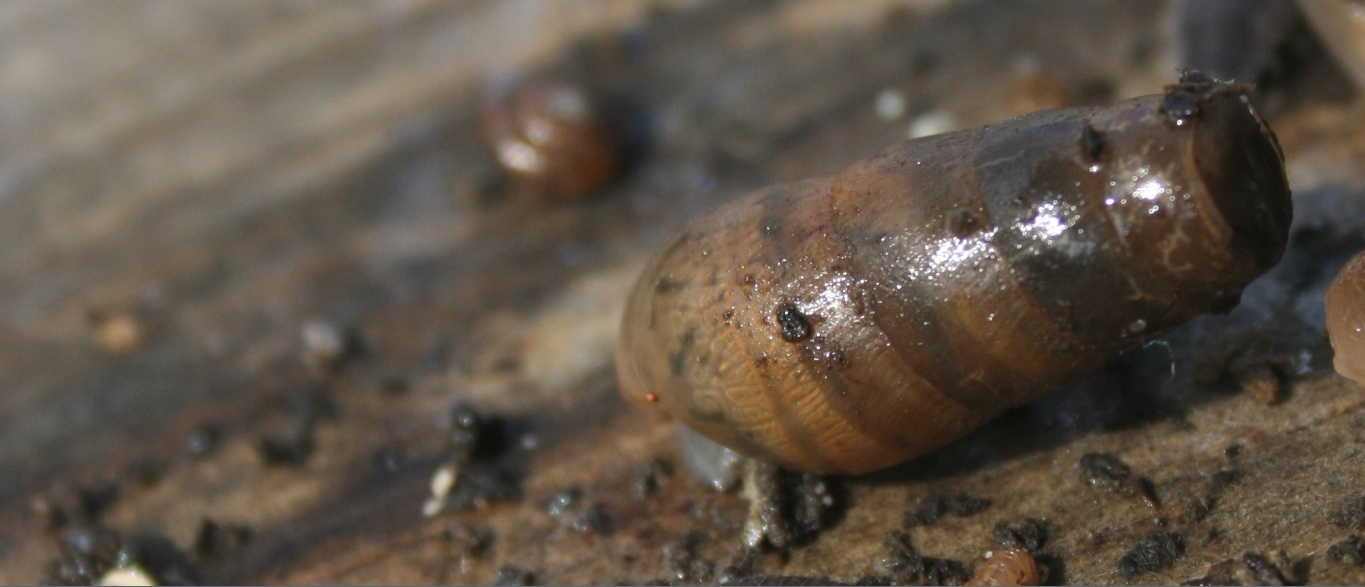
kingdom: Animalia
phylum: Mollusca
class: Gastropoda
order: Stylommatophora
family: Achatinidae
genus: Rumina
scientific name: Rumina decollata
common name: Decollate snail
